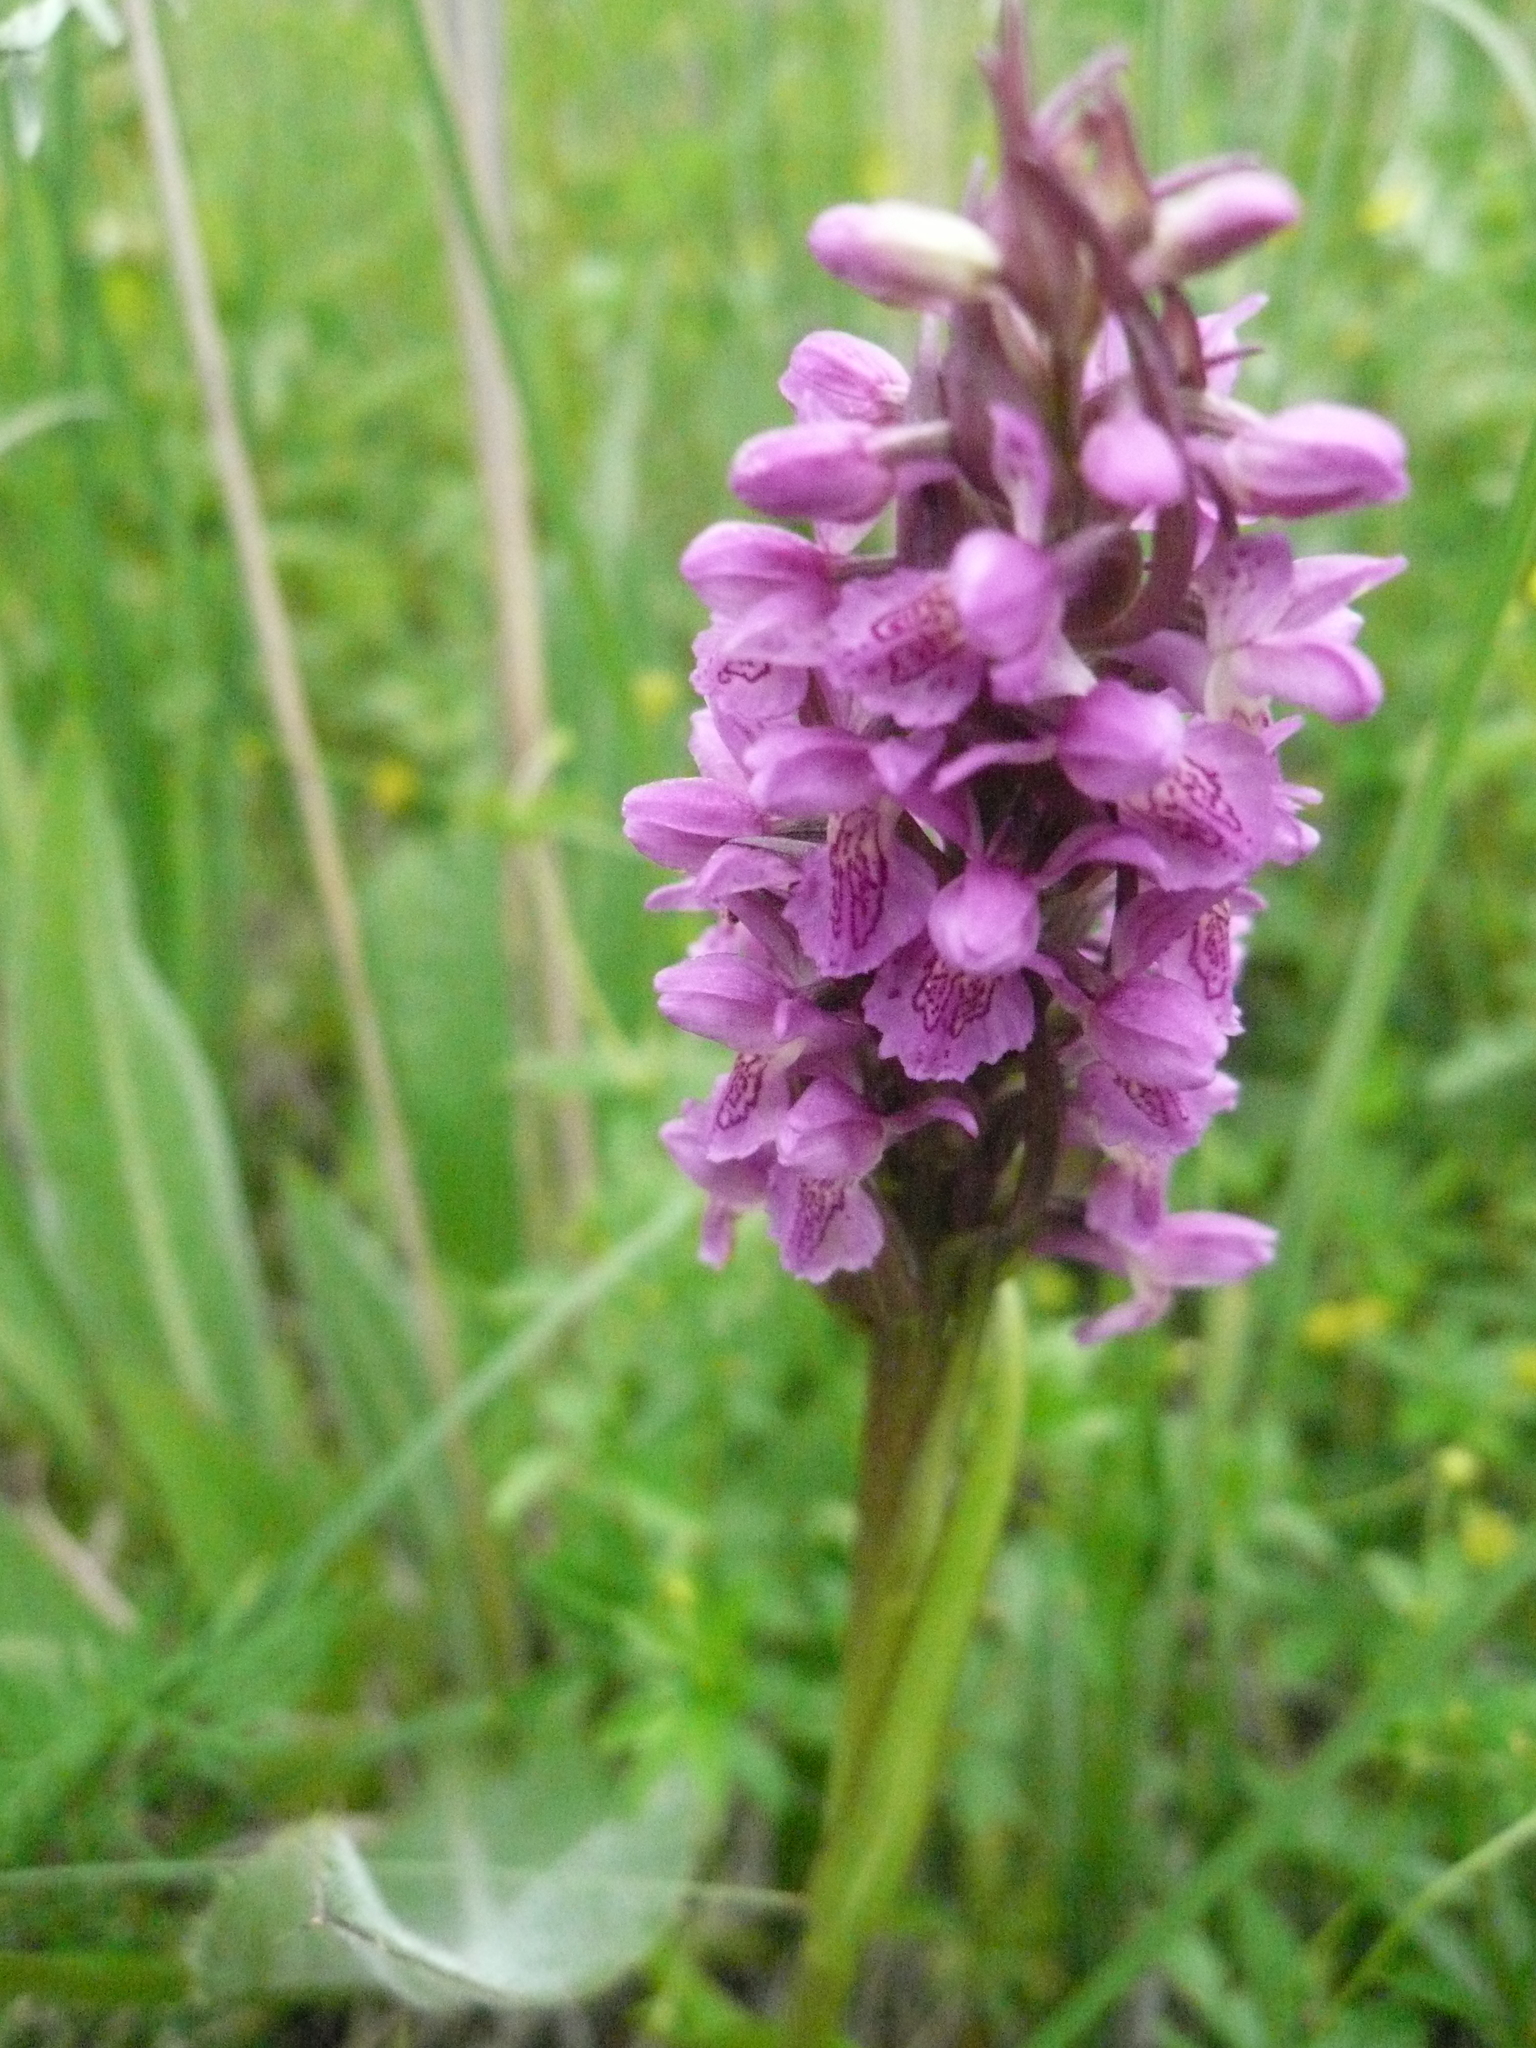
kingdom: Plantae
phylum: Tracheophyta
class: Liliopsida
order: Asparagales
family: Orchidaceae
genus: Dactylorhiza
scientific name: Dactylorhiza incarnata
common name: Early marsh-orchid
